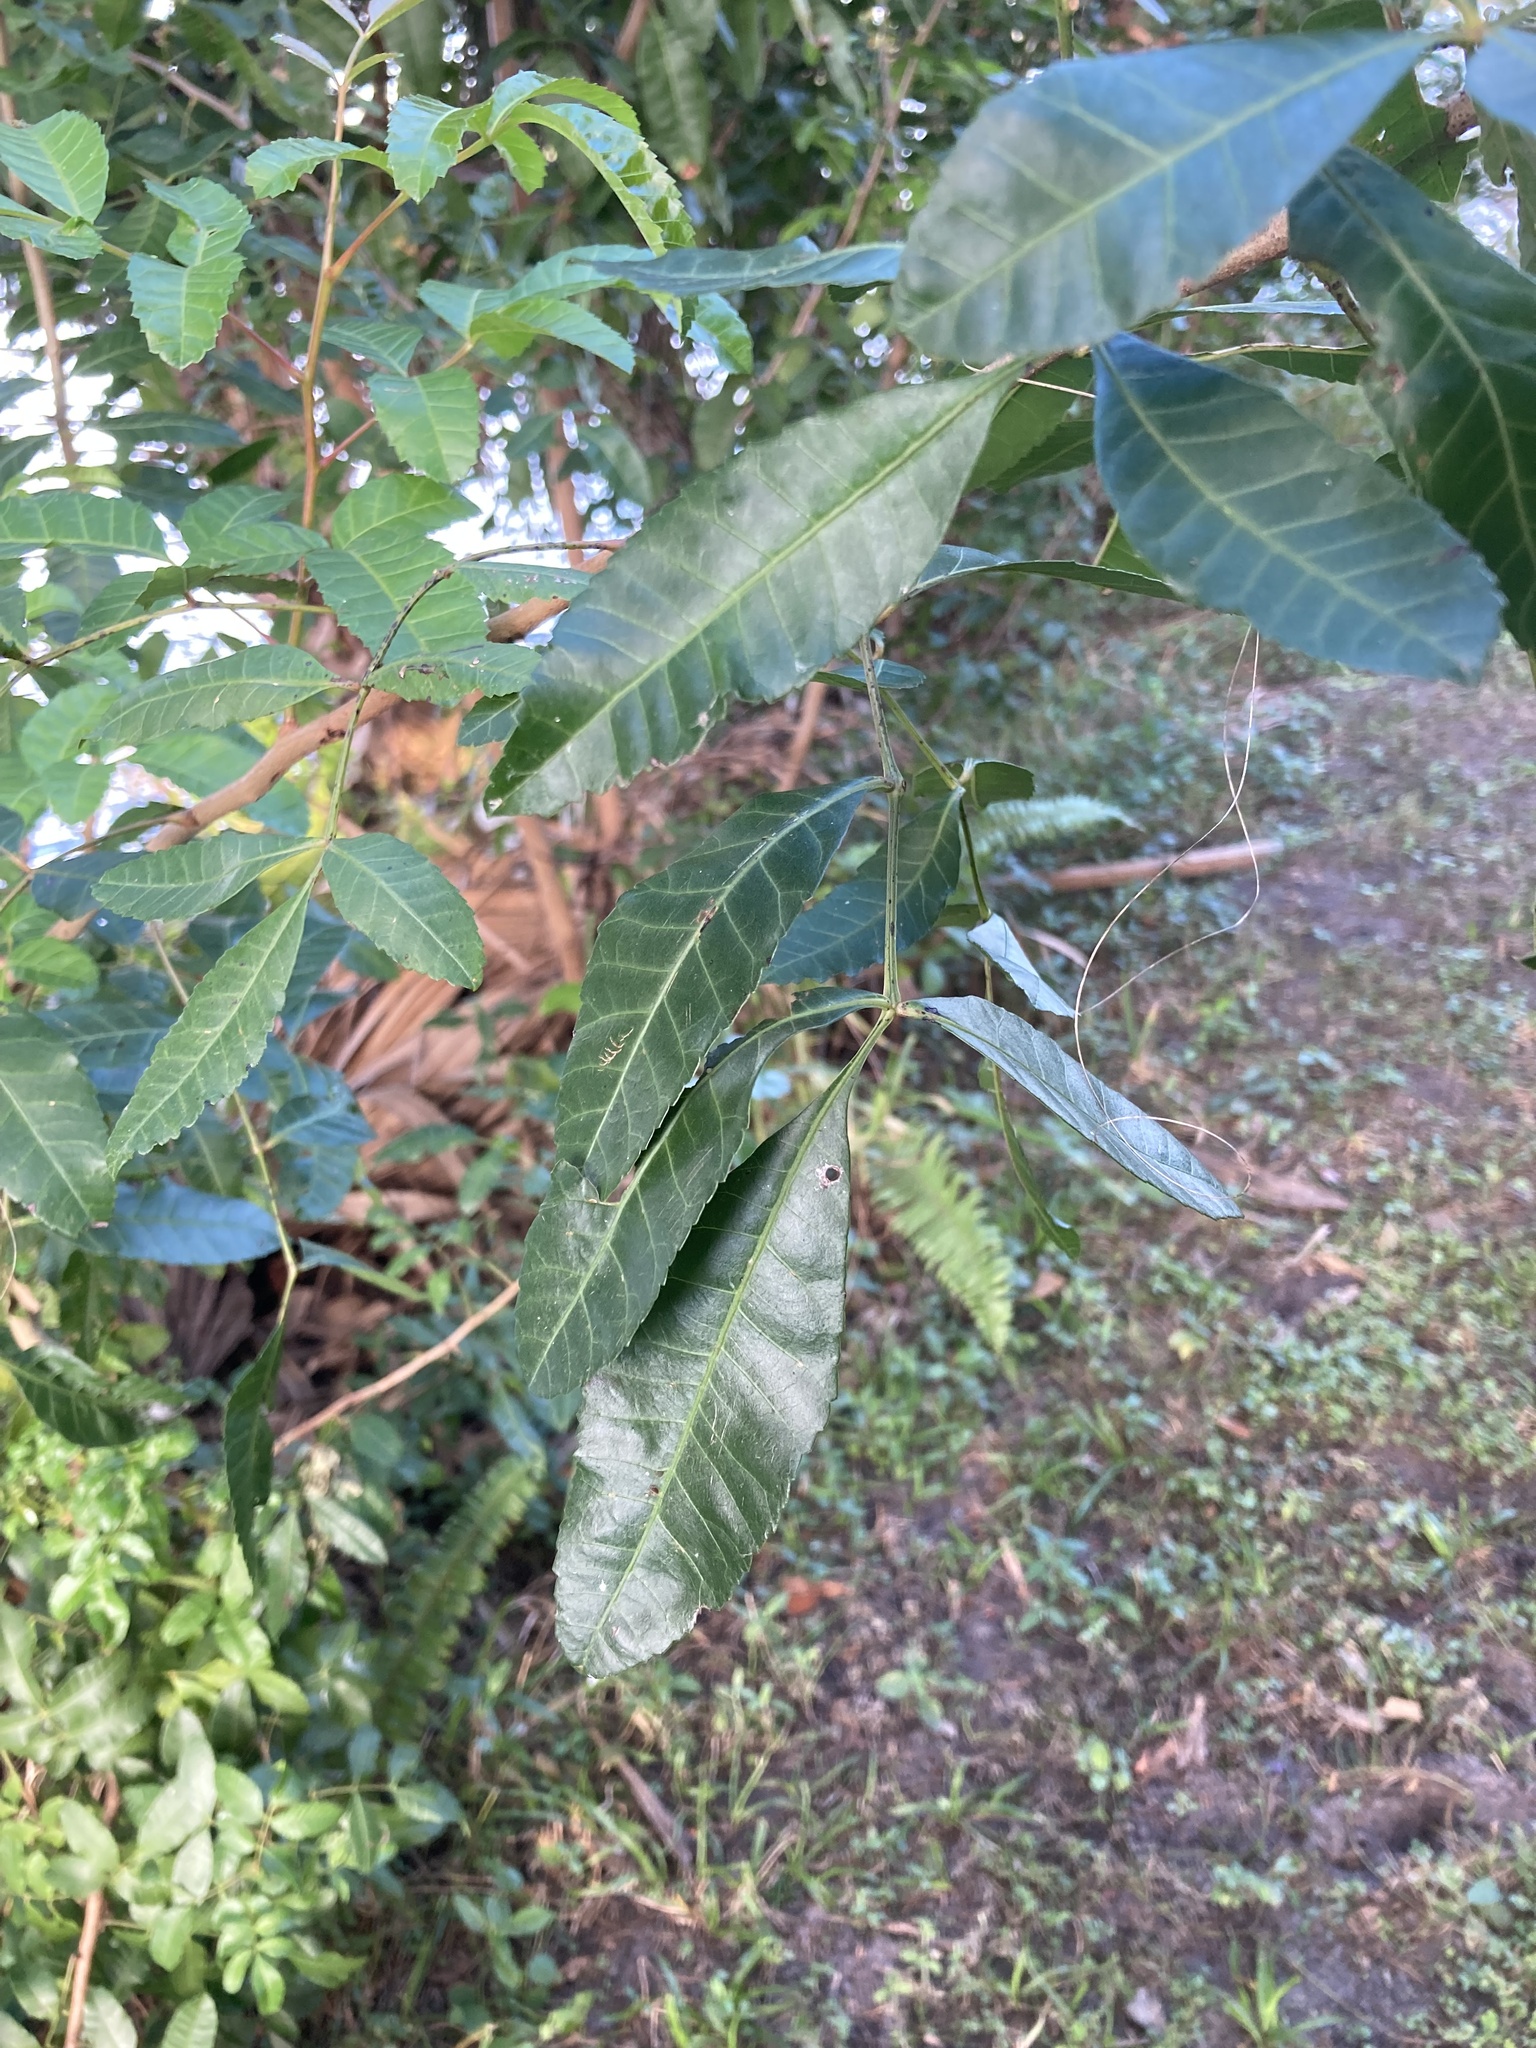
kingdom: Plantae
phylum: Tracheophyta
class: Magnoliopsida
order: Sapindales
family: Anacardiaceae
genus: Schinus
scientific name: Schinus terebinthifolia
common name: Brazilian peppertree
